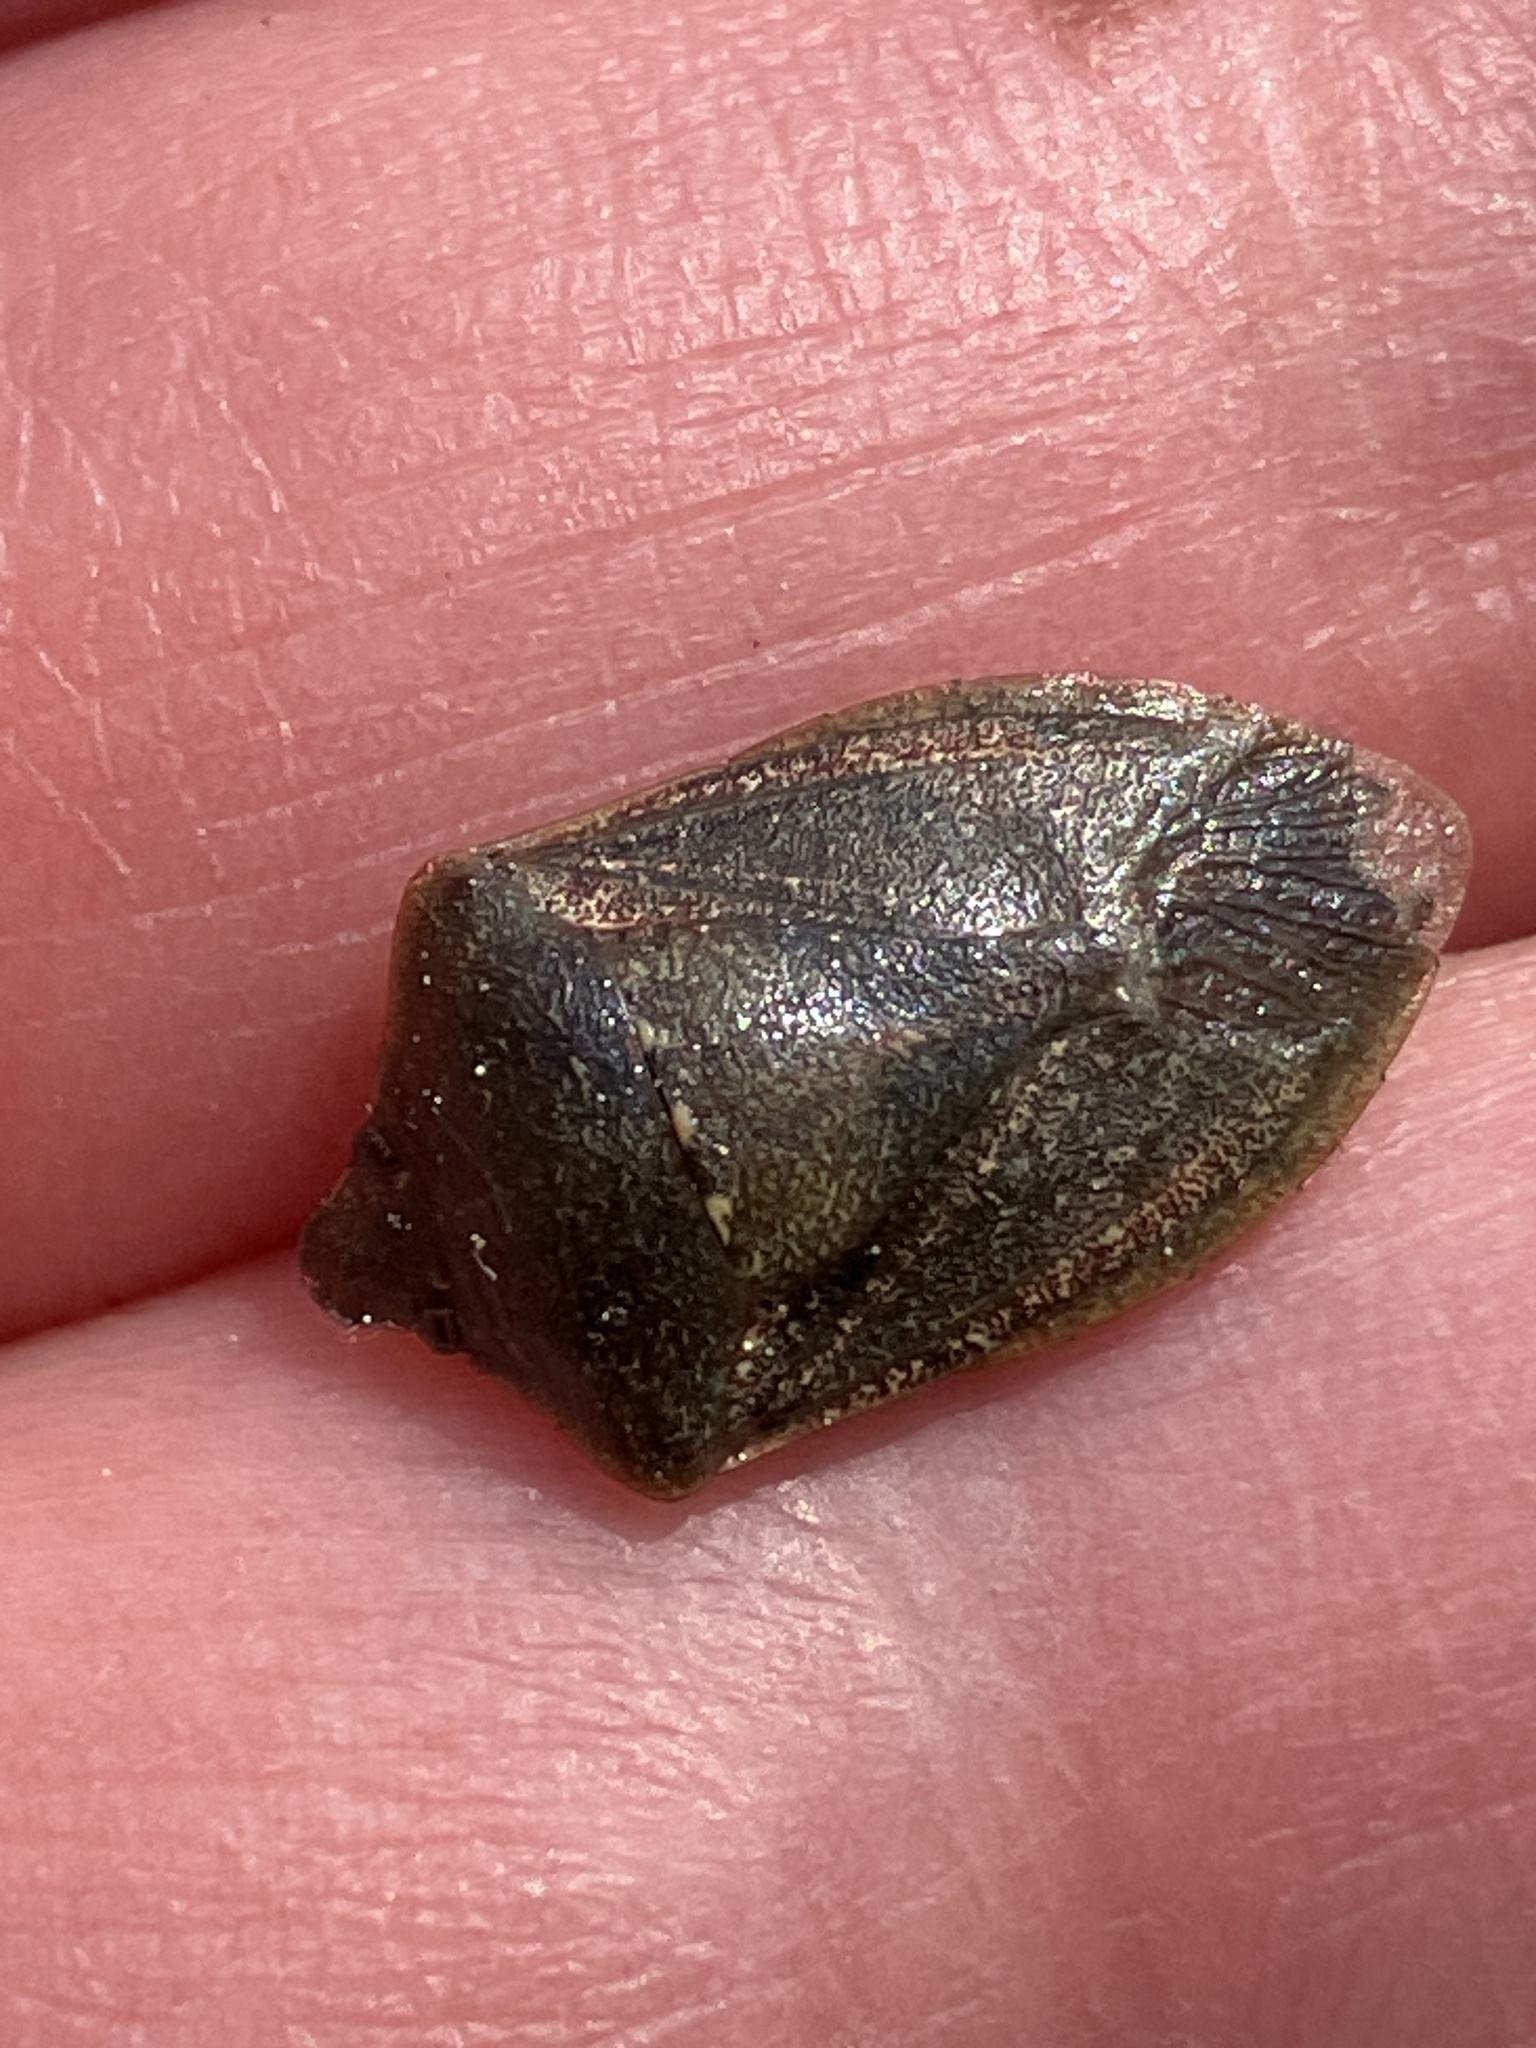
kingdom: Animalia
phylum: Arthropoda
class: Insecta
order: Hemiptera
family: Pentatomidae
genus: Nezara
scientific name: Nezara viridula
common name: Southern green stink bug
